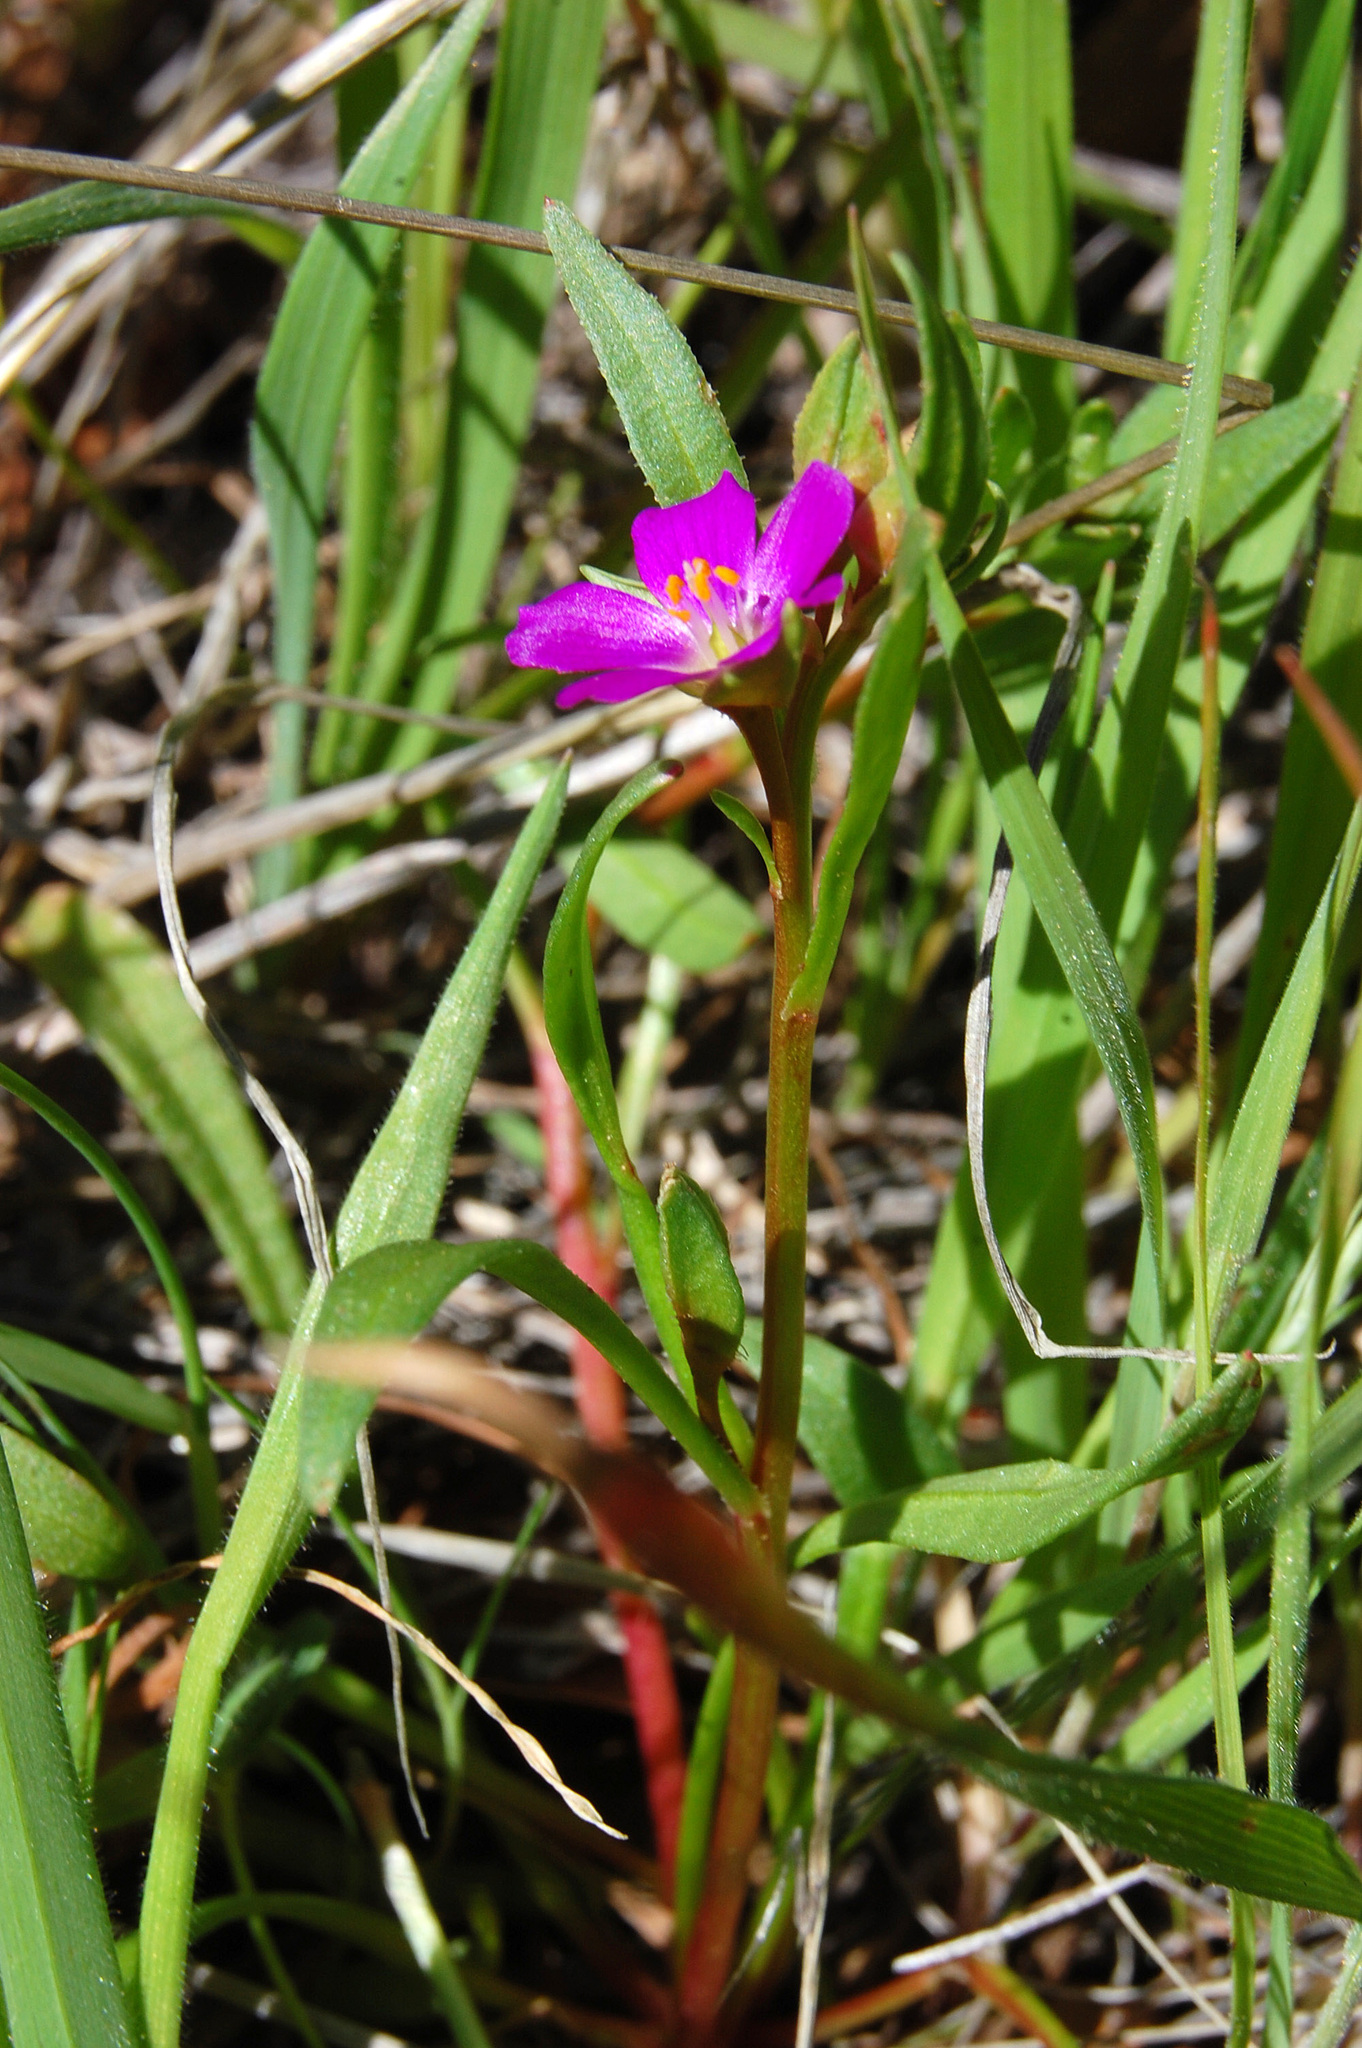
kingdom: Plantae
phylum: Tracheophyta
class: Magnoliopsida
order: Caryophyllales
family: Montiaceae
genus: Calandrinia
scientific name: Calandrinia menziesii
